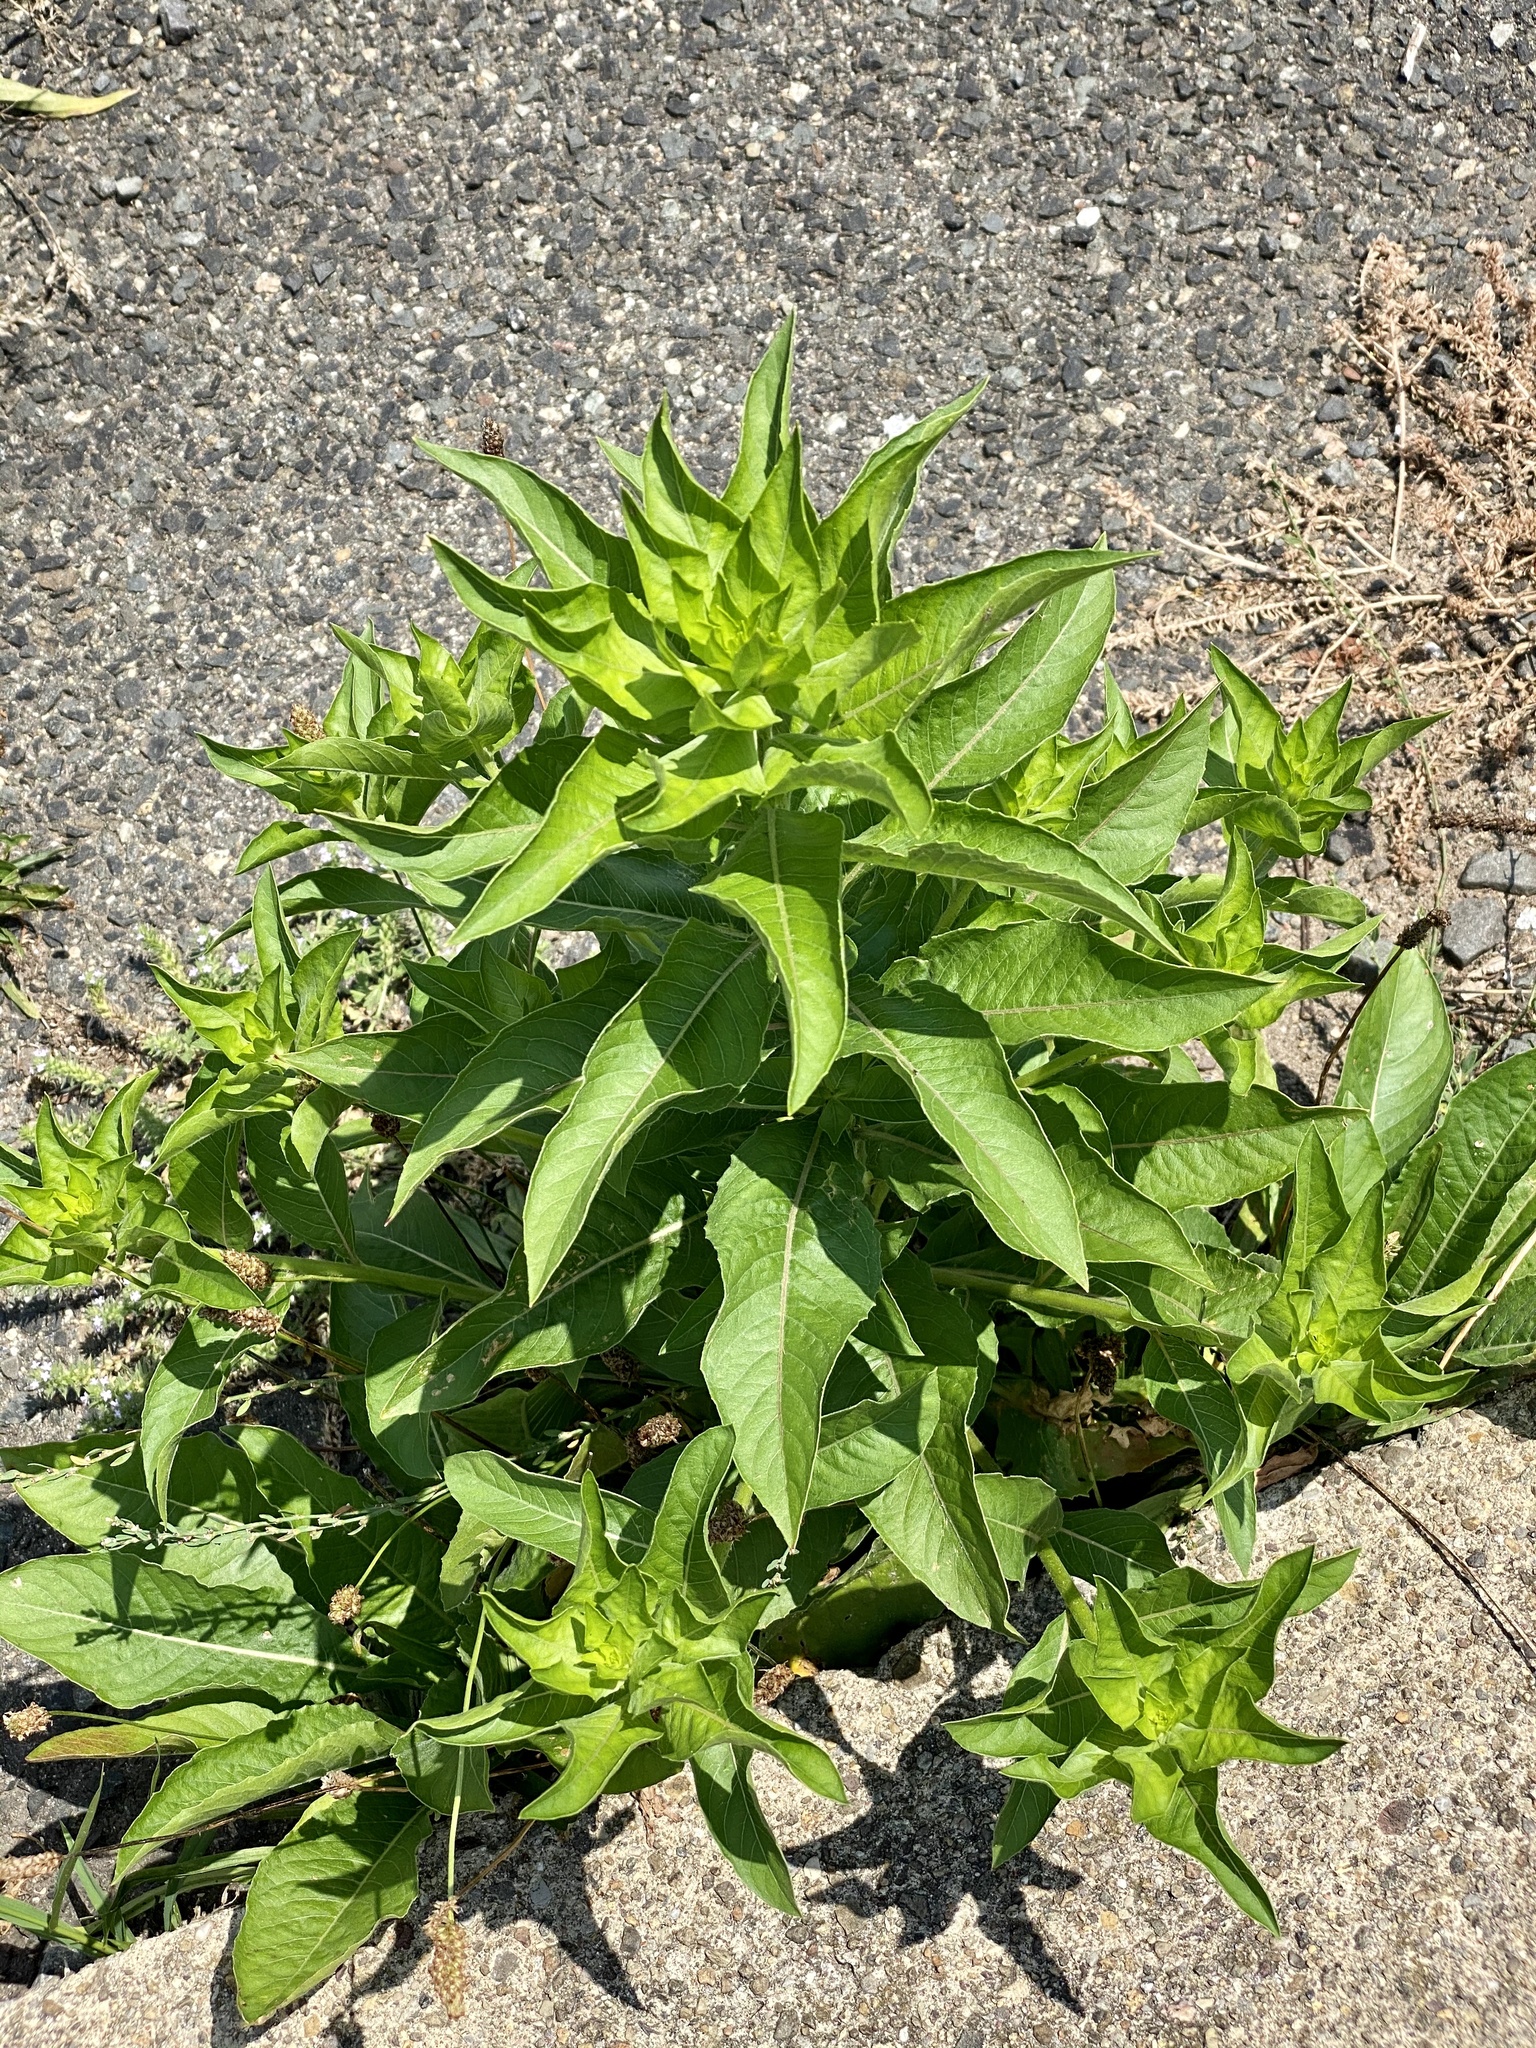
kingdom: Plantae
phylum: Tracheophyta
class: Magnoliopsida
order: Myrtales
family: Onagraceae
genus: Oenothera
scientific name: Oenothera biennis
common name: Common evening-primrose
